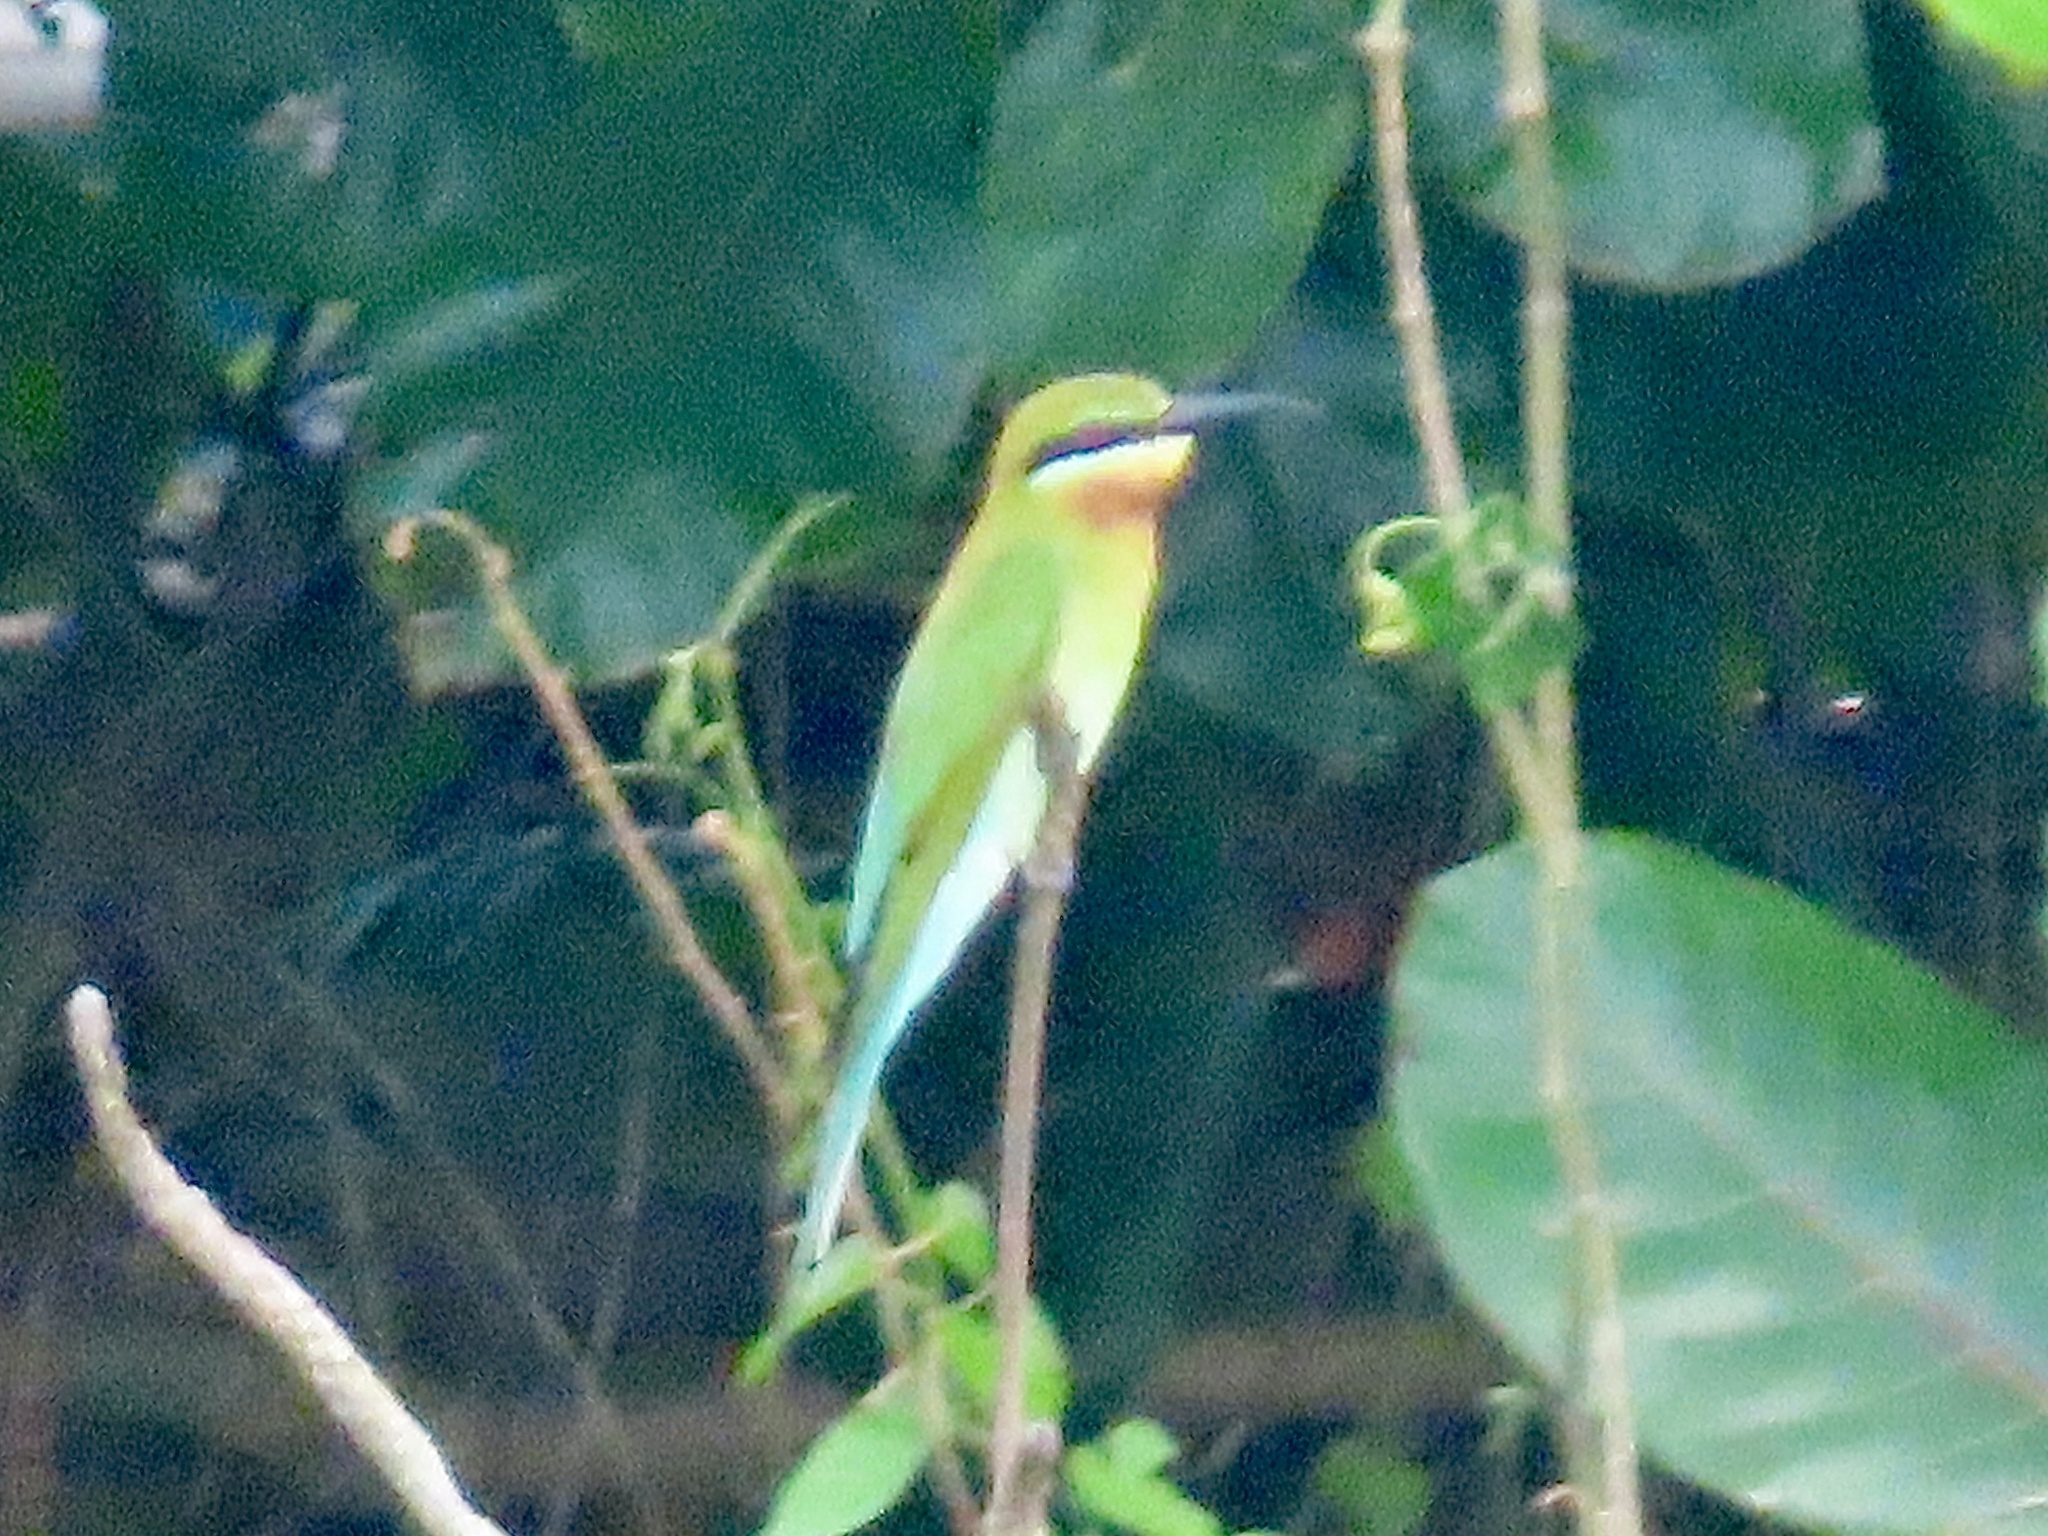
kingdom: Animalia
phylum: Chordata
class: Aves
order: Coraciiformes
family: Meropidae
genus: Merops
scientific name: Merops philippinus
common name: Blue-tailed bee-eater
